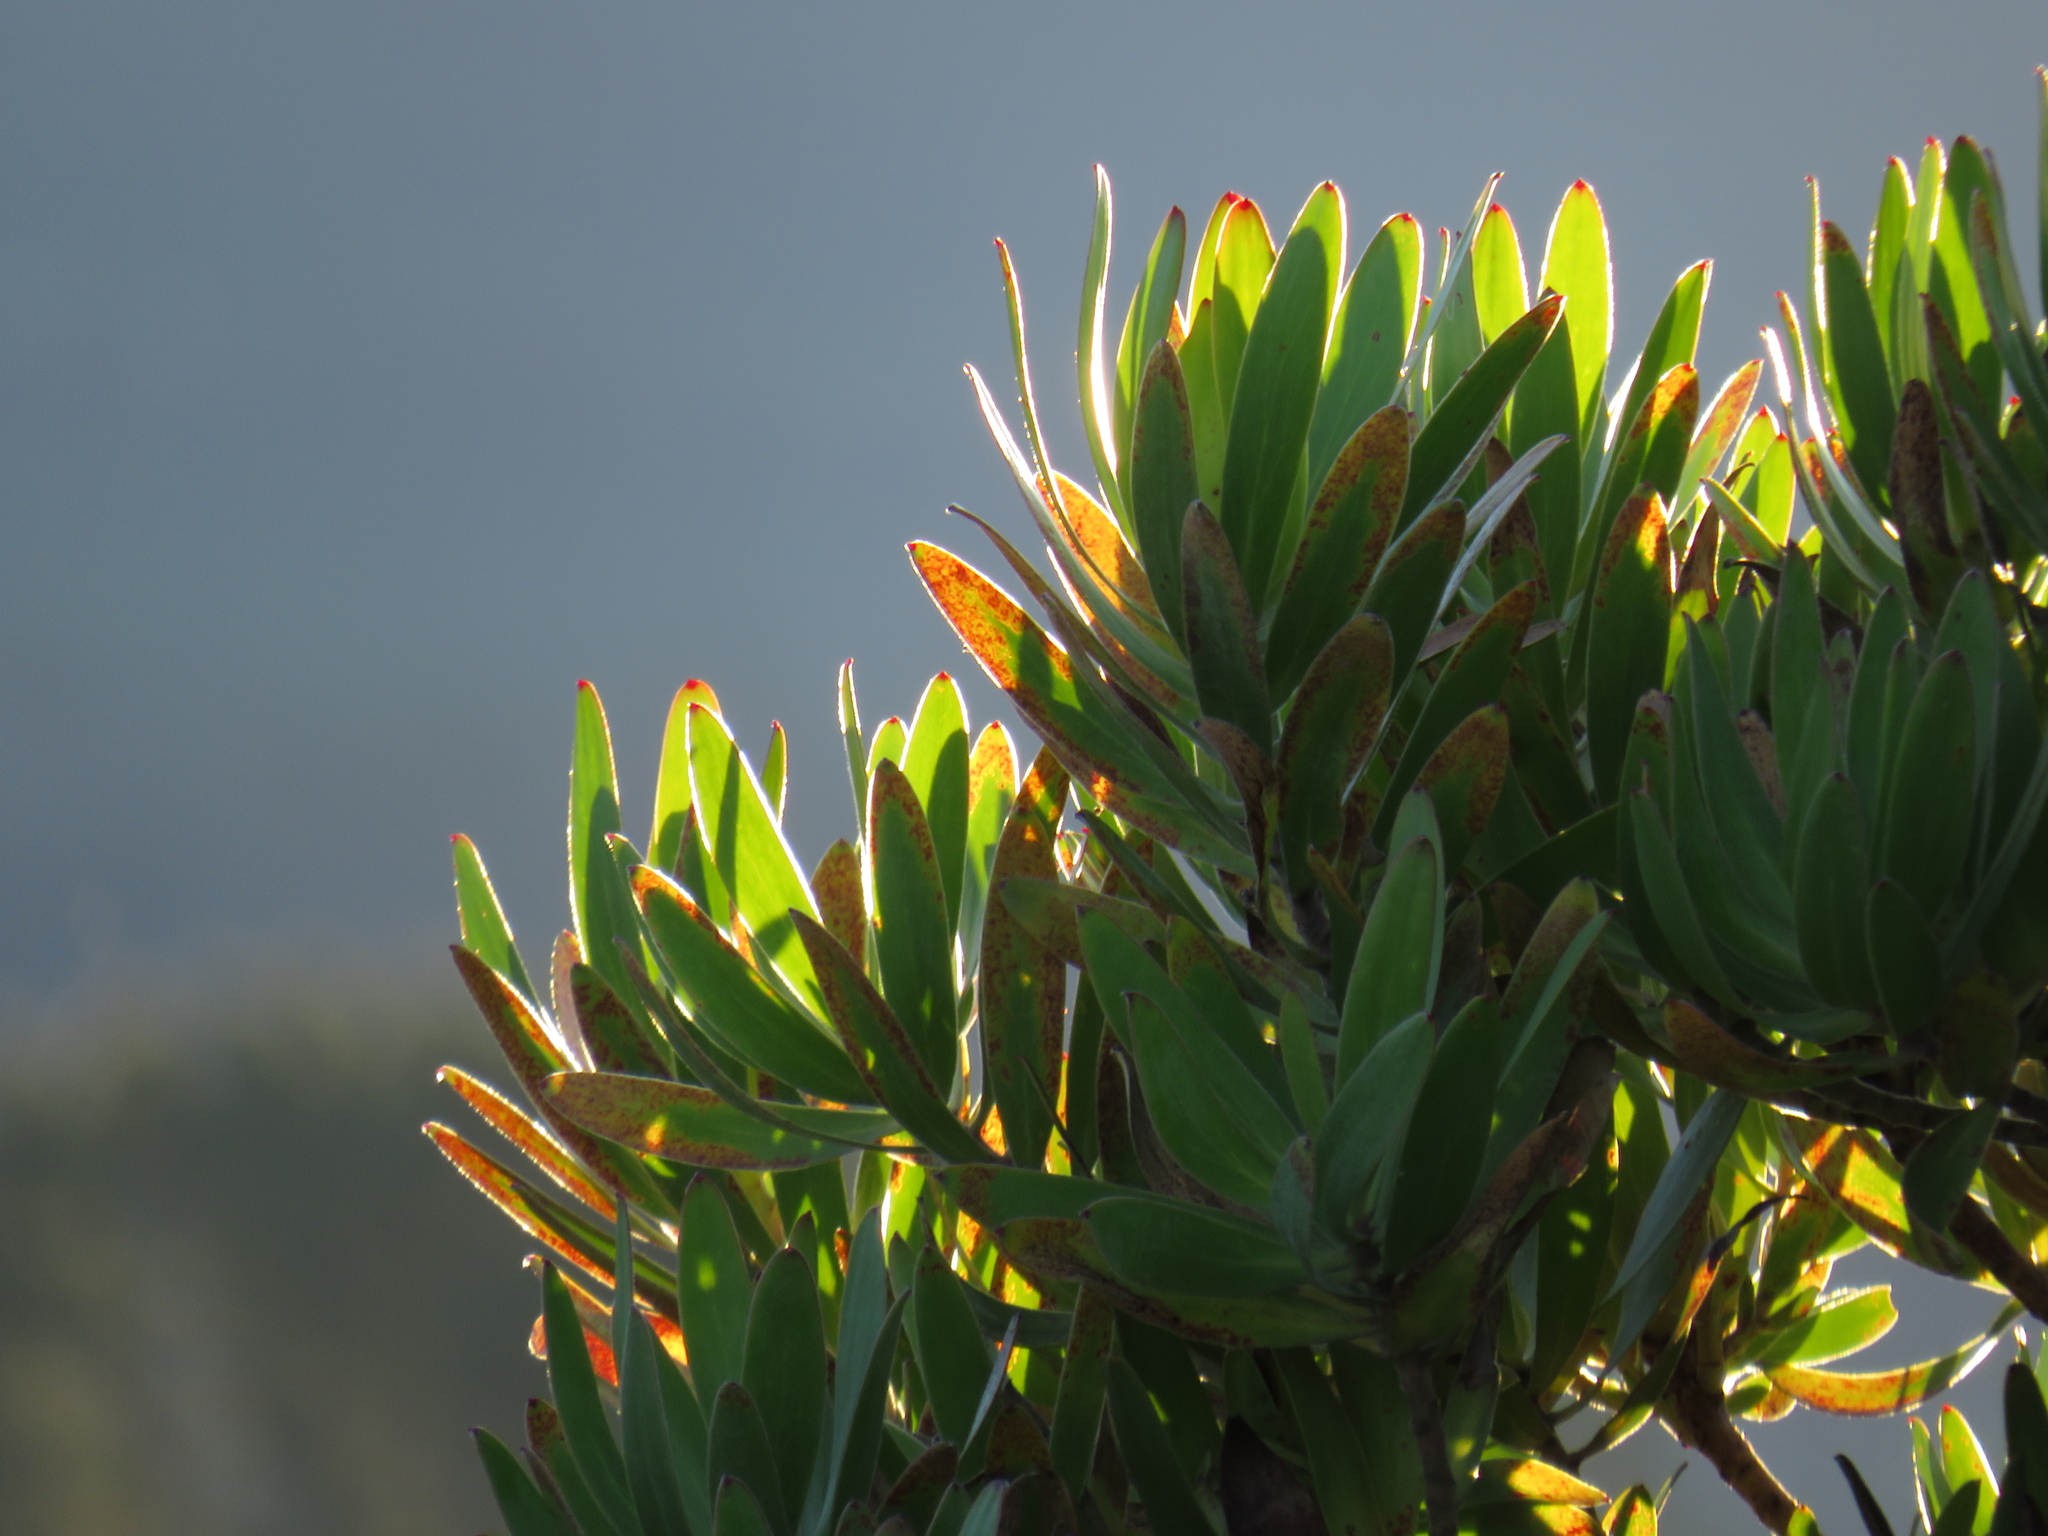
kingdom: Plantae
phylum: Tracheophyta
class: Magnoliopsida
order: Proteales
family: Proteaceae
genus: Leucadendron
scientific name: Leucadendron laureolum
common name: Golden sunshinebush
